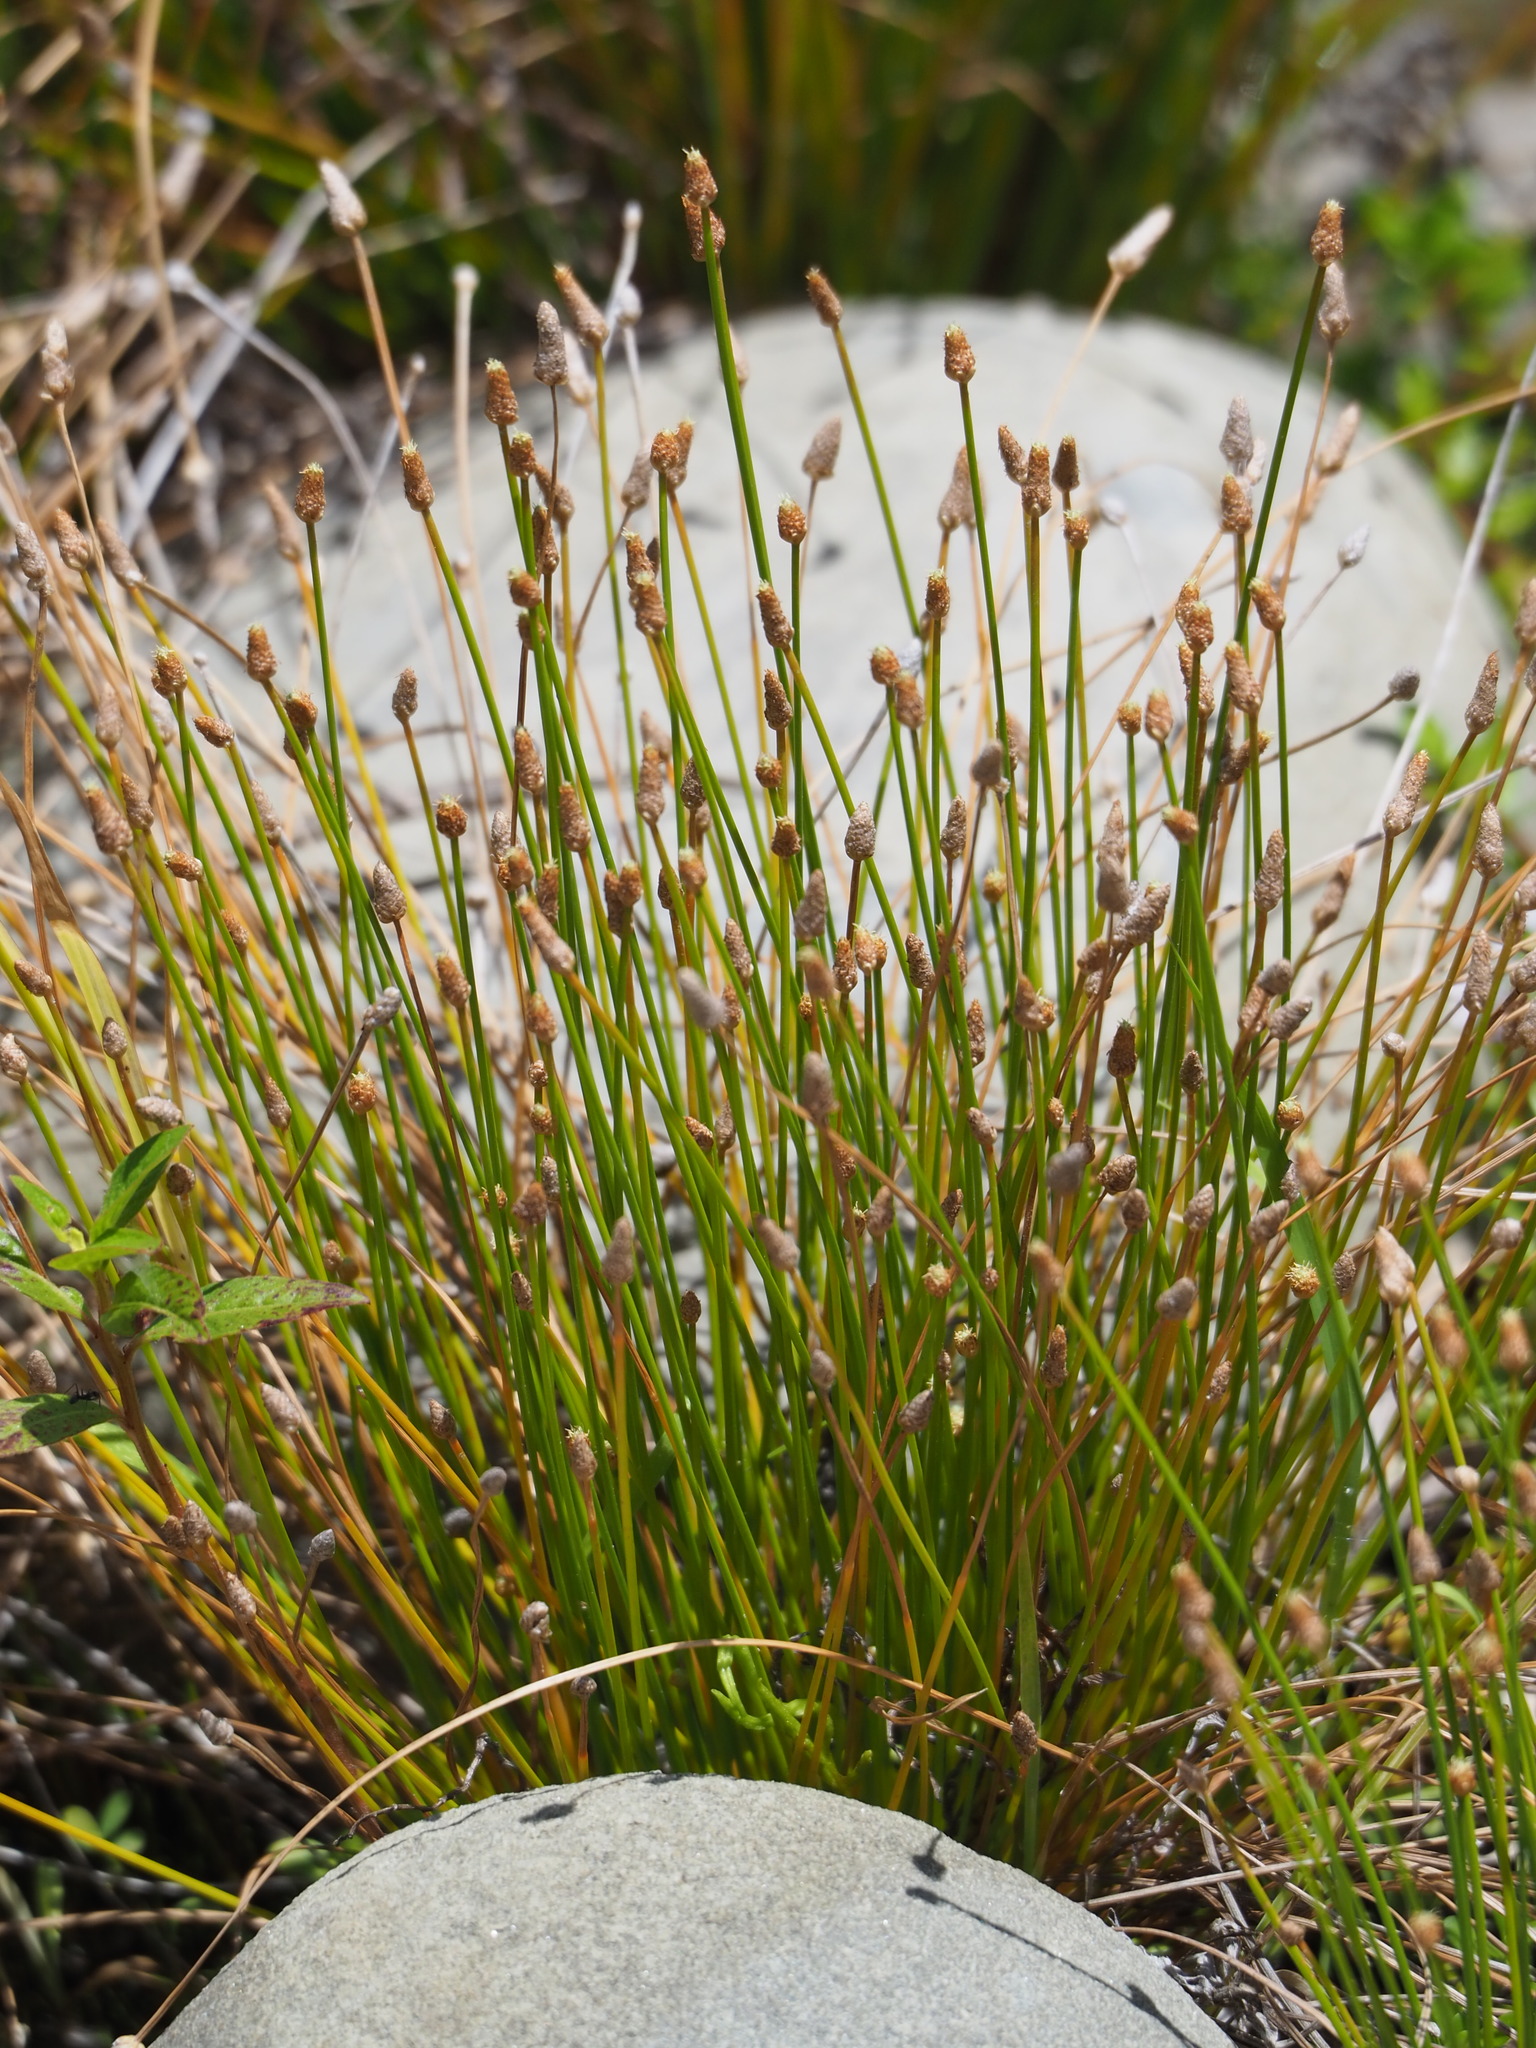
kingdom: Plantae
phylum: Tracheophyta
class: Liliopsida
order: Poales
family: Cyperaceae
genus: Eleocharis
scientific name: Eleocharis geniculata
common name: Canada spikesedge
